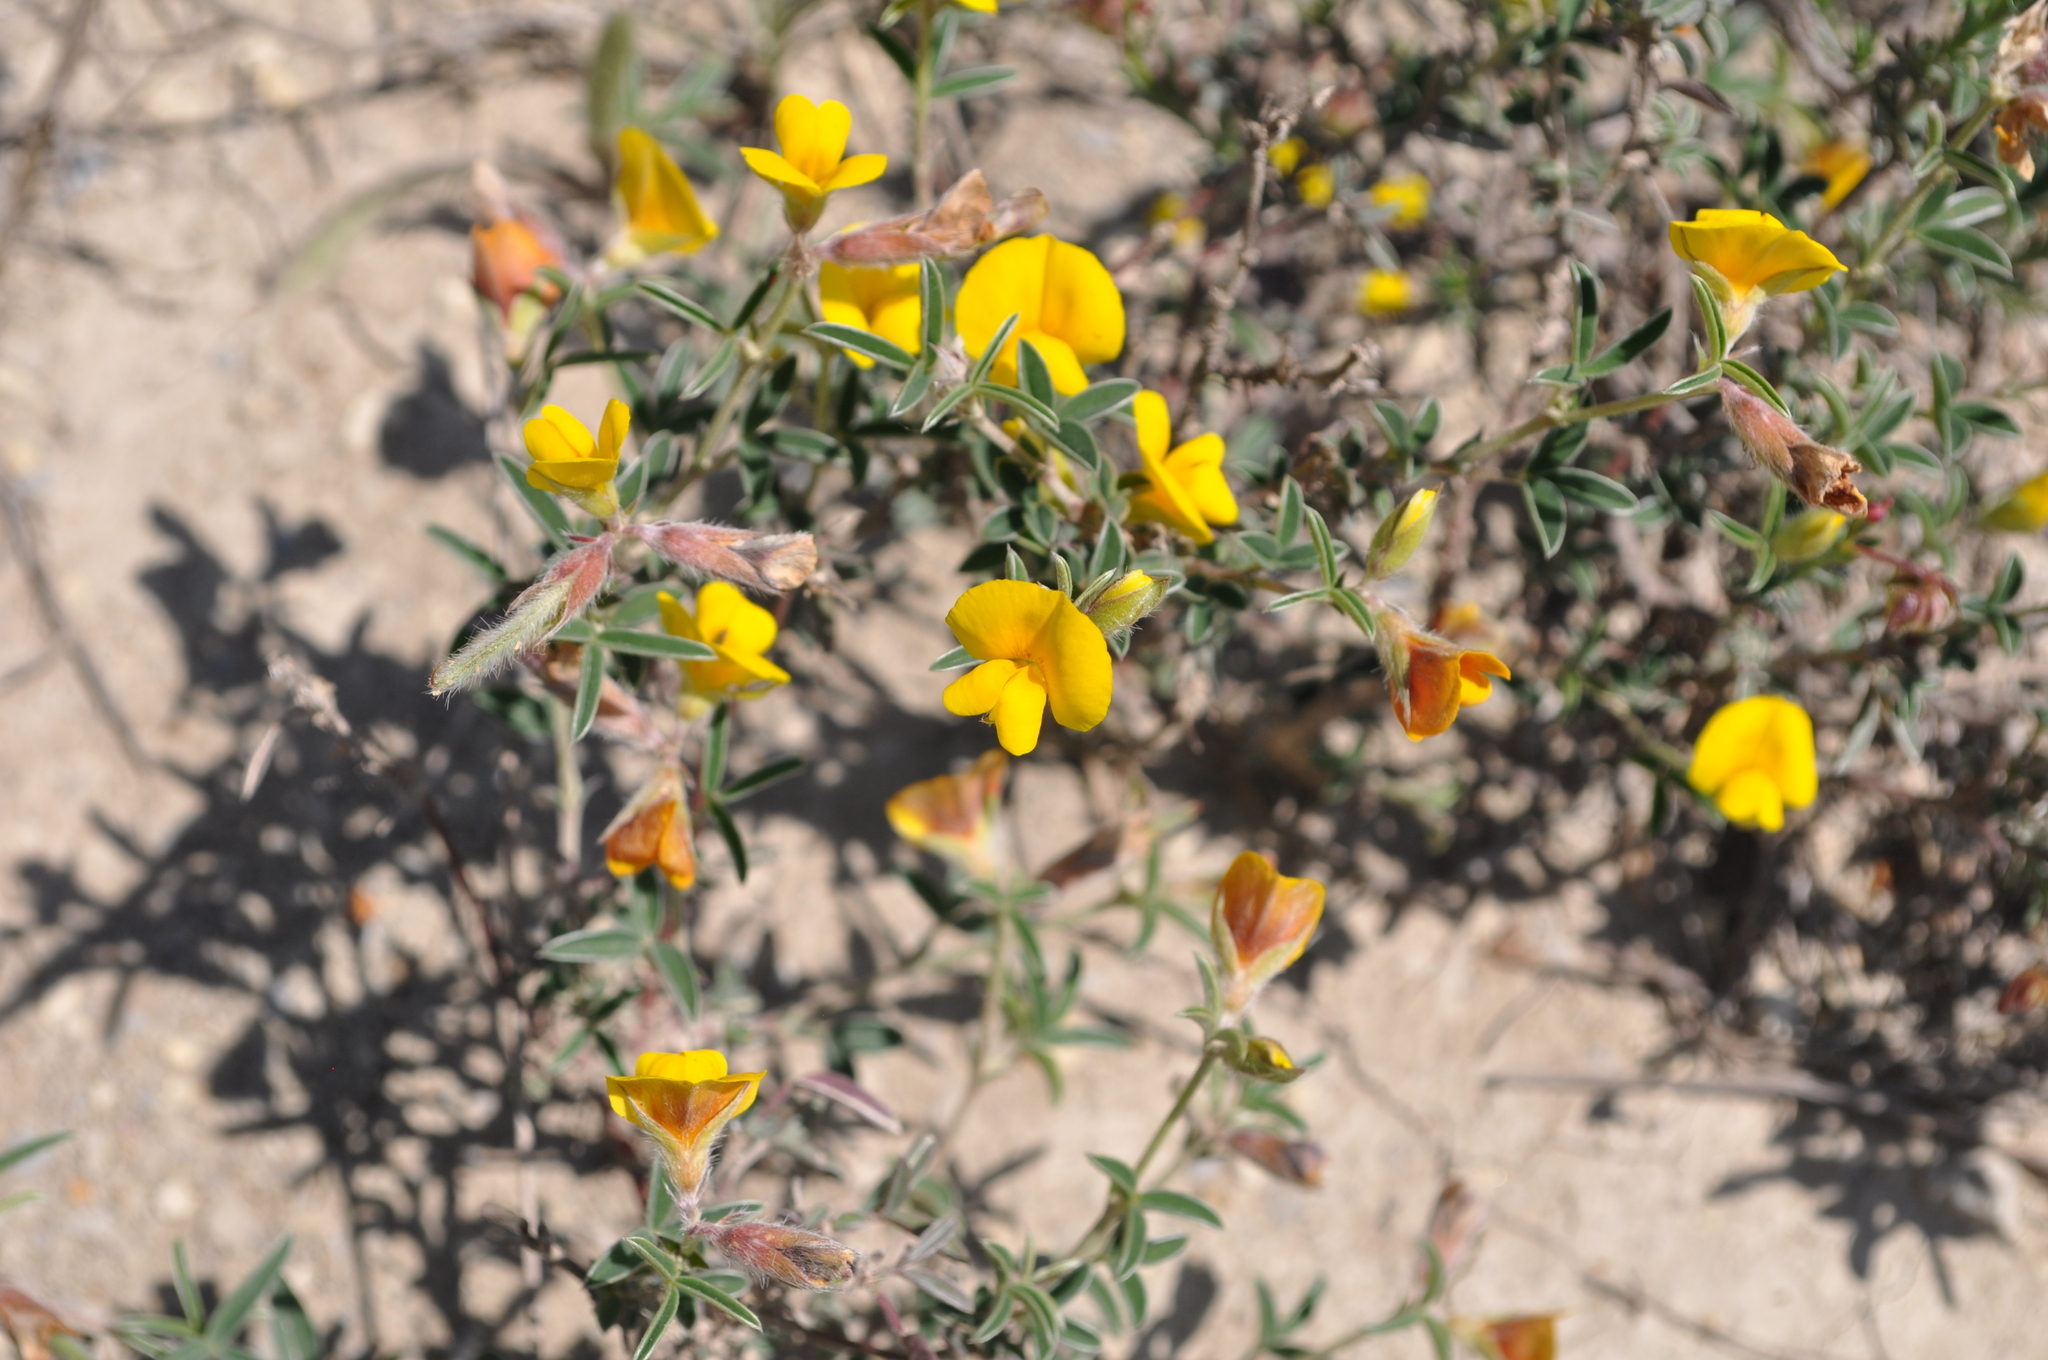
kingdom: Plantae
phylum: Tracheophyta
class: Magnoliopsida
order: Fabales
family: Fabaceae
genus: Argyrolobium
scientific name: Argyrolobium zanonii
